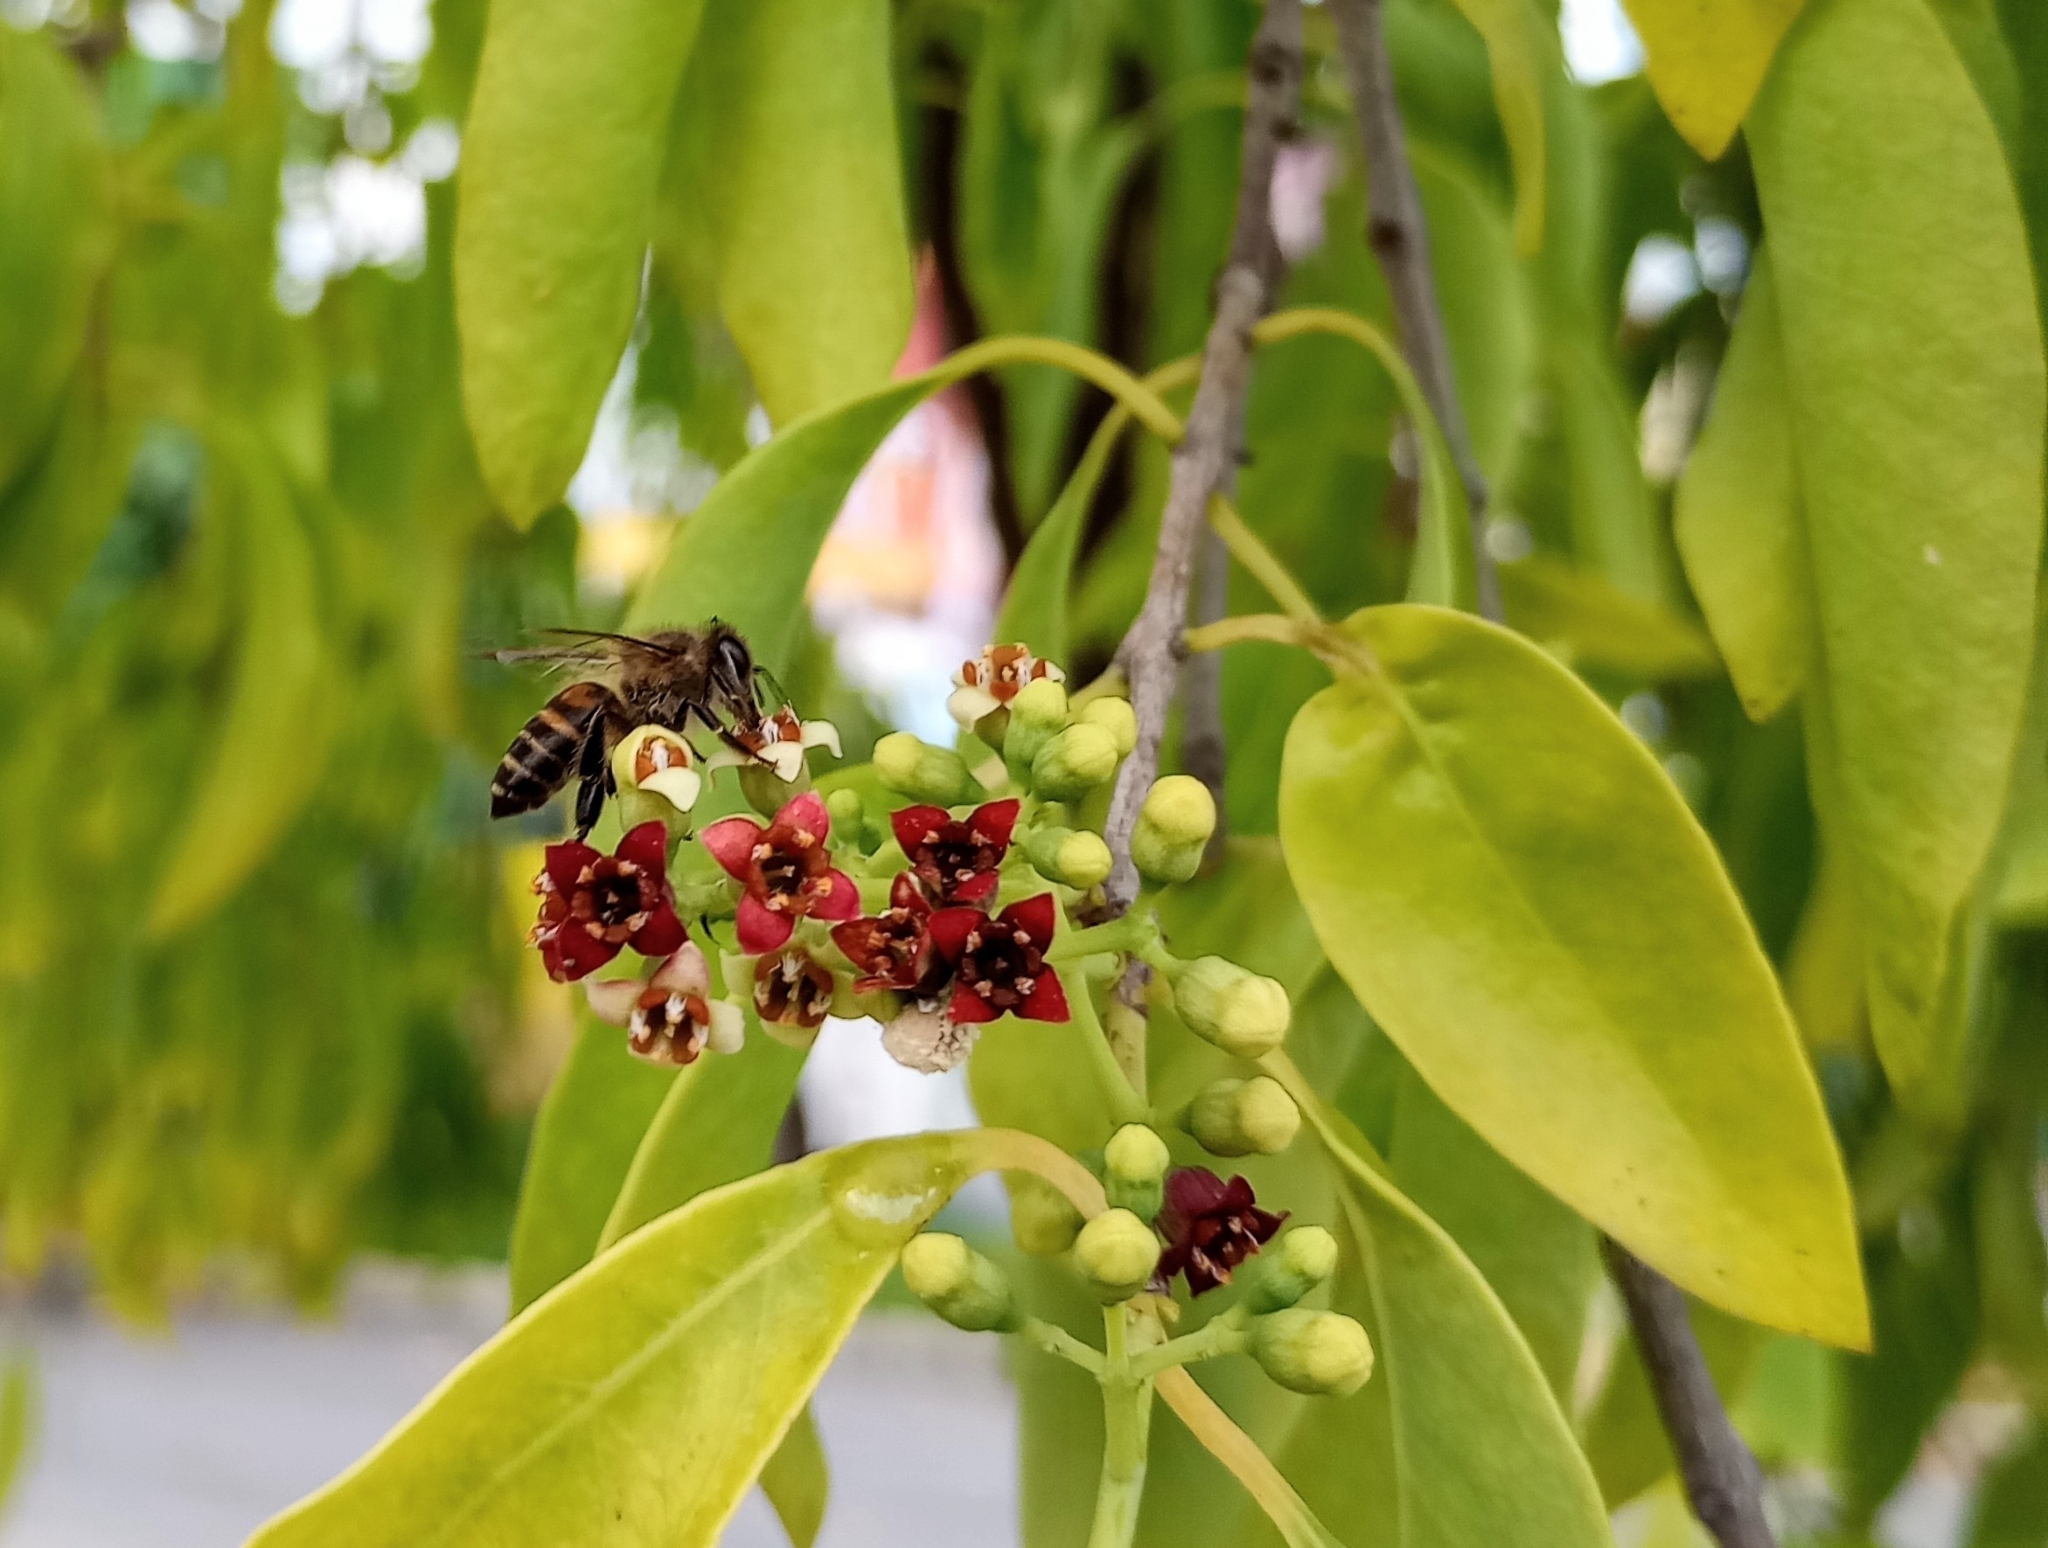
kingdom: Animalia
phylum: Arthropoda
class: Insecta
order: Hymenoptera
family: Apidae
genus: Apis
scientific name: Apis cerana
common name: Honey bee
